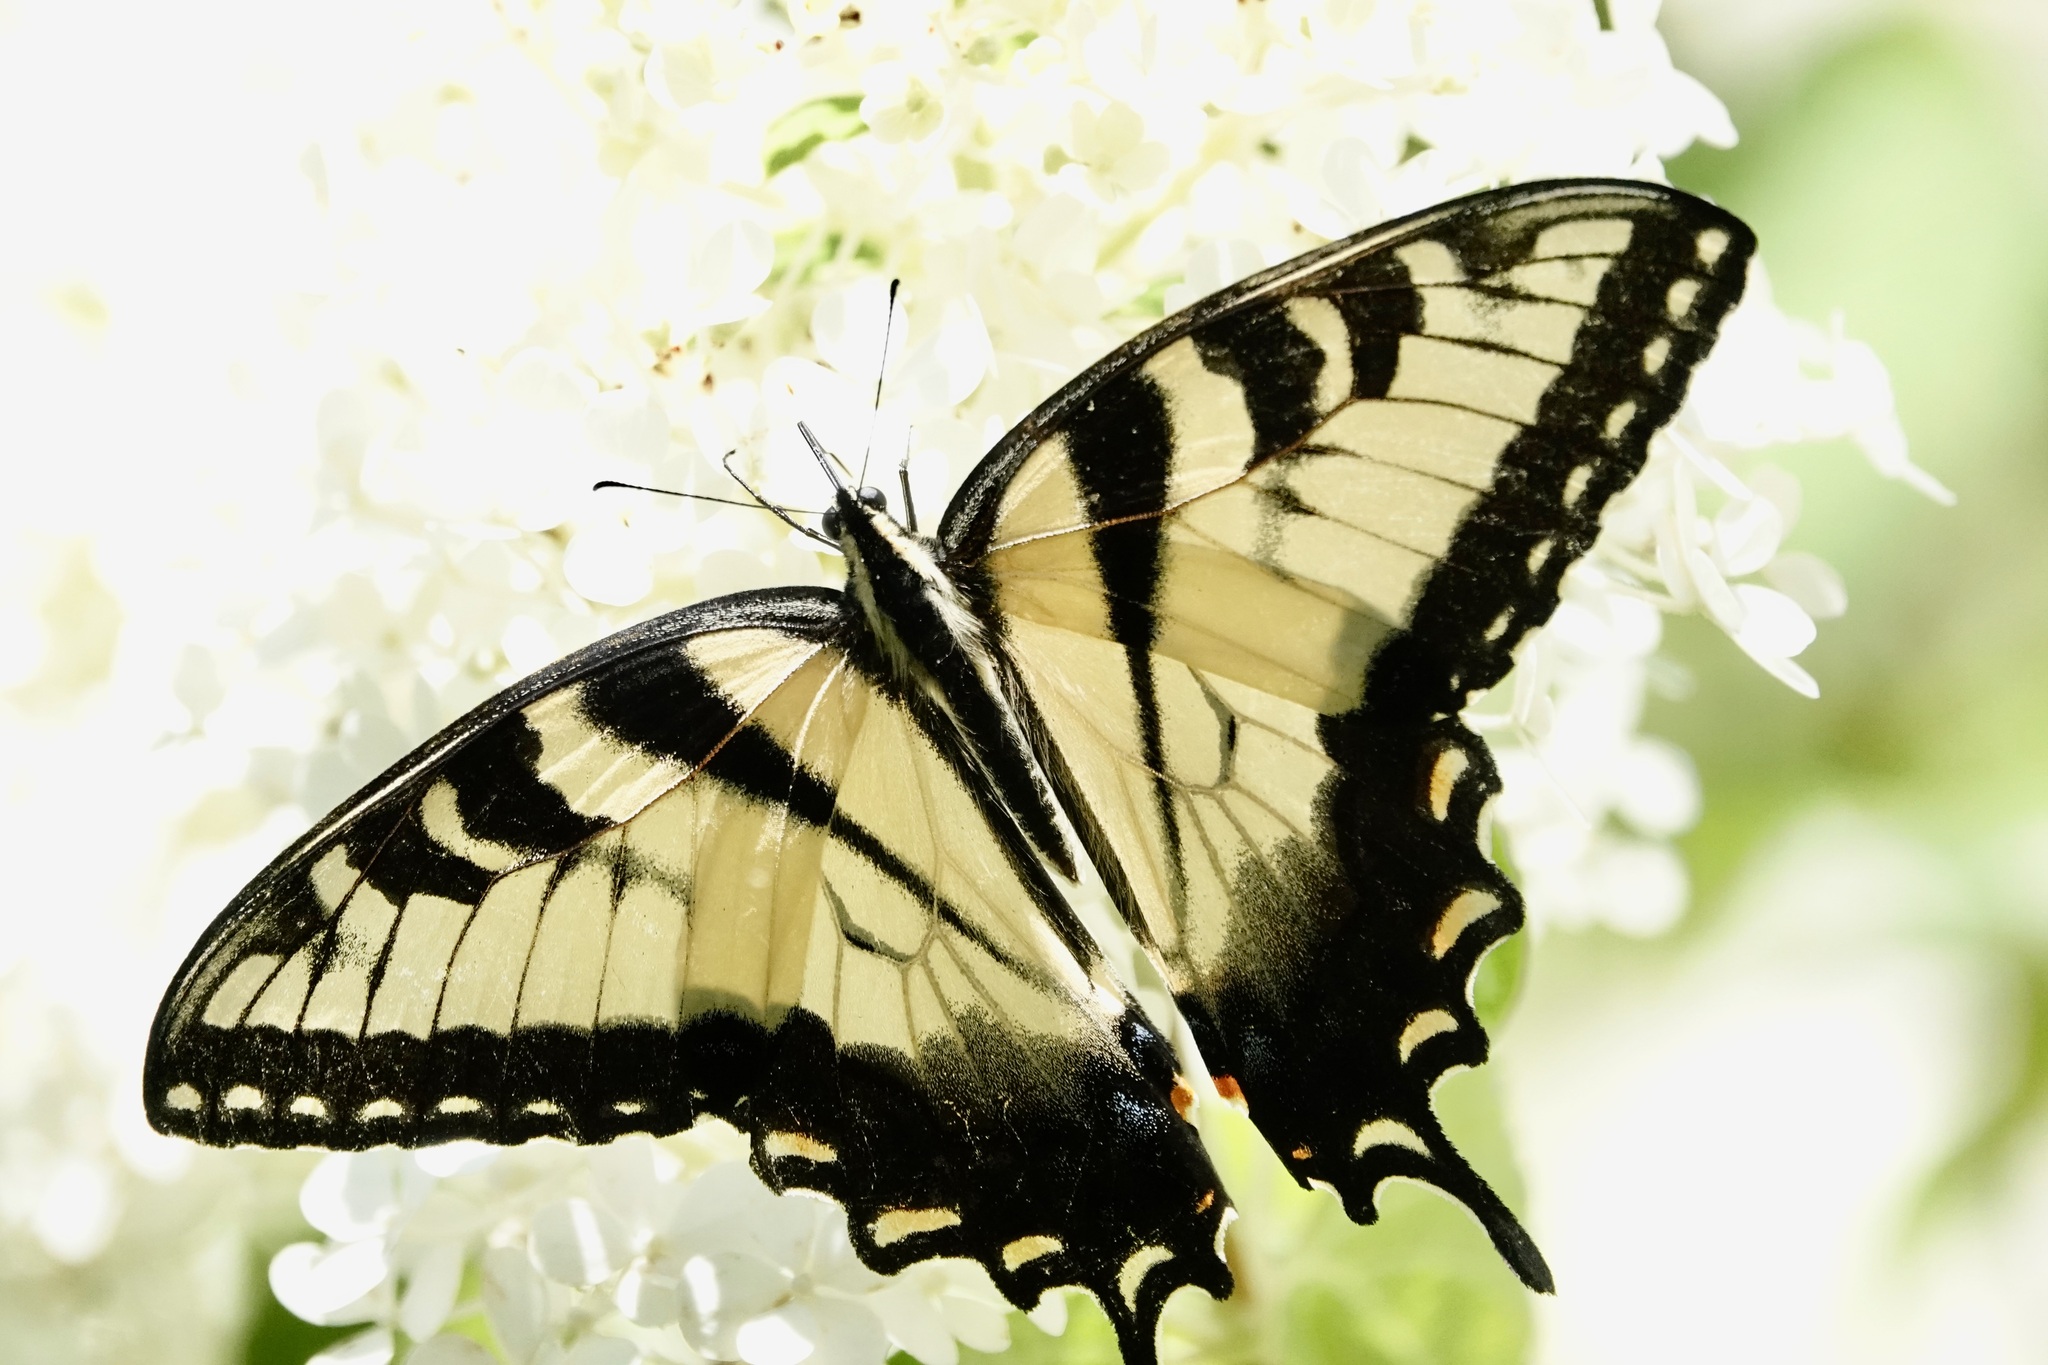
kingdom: Animalia
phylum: Arthropoda
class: Insecta
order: Lepidoptera
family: Papilionidae
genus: Papilio
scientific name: Papilio glaucus
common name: Tiger swallowtail
